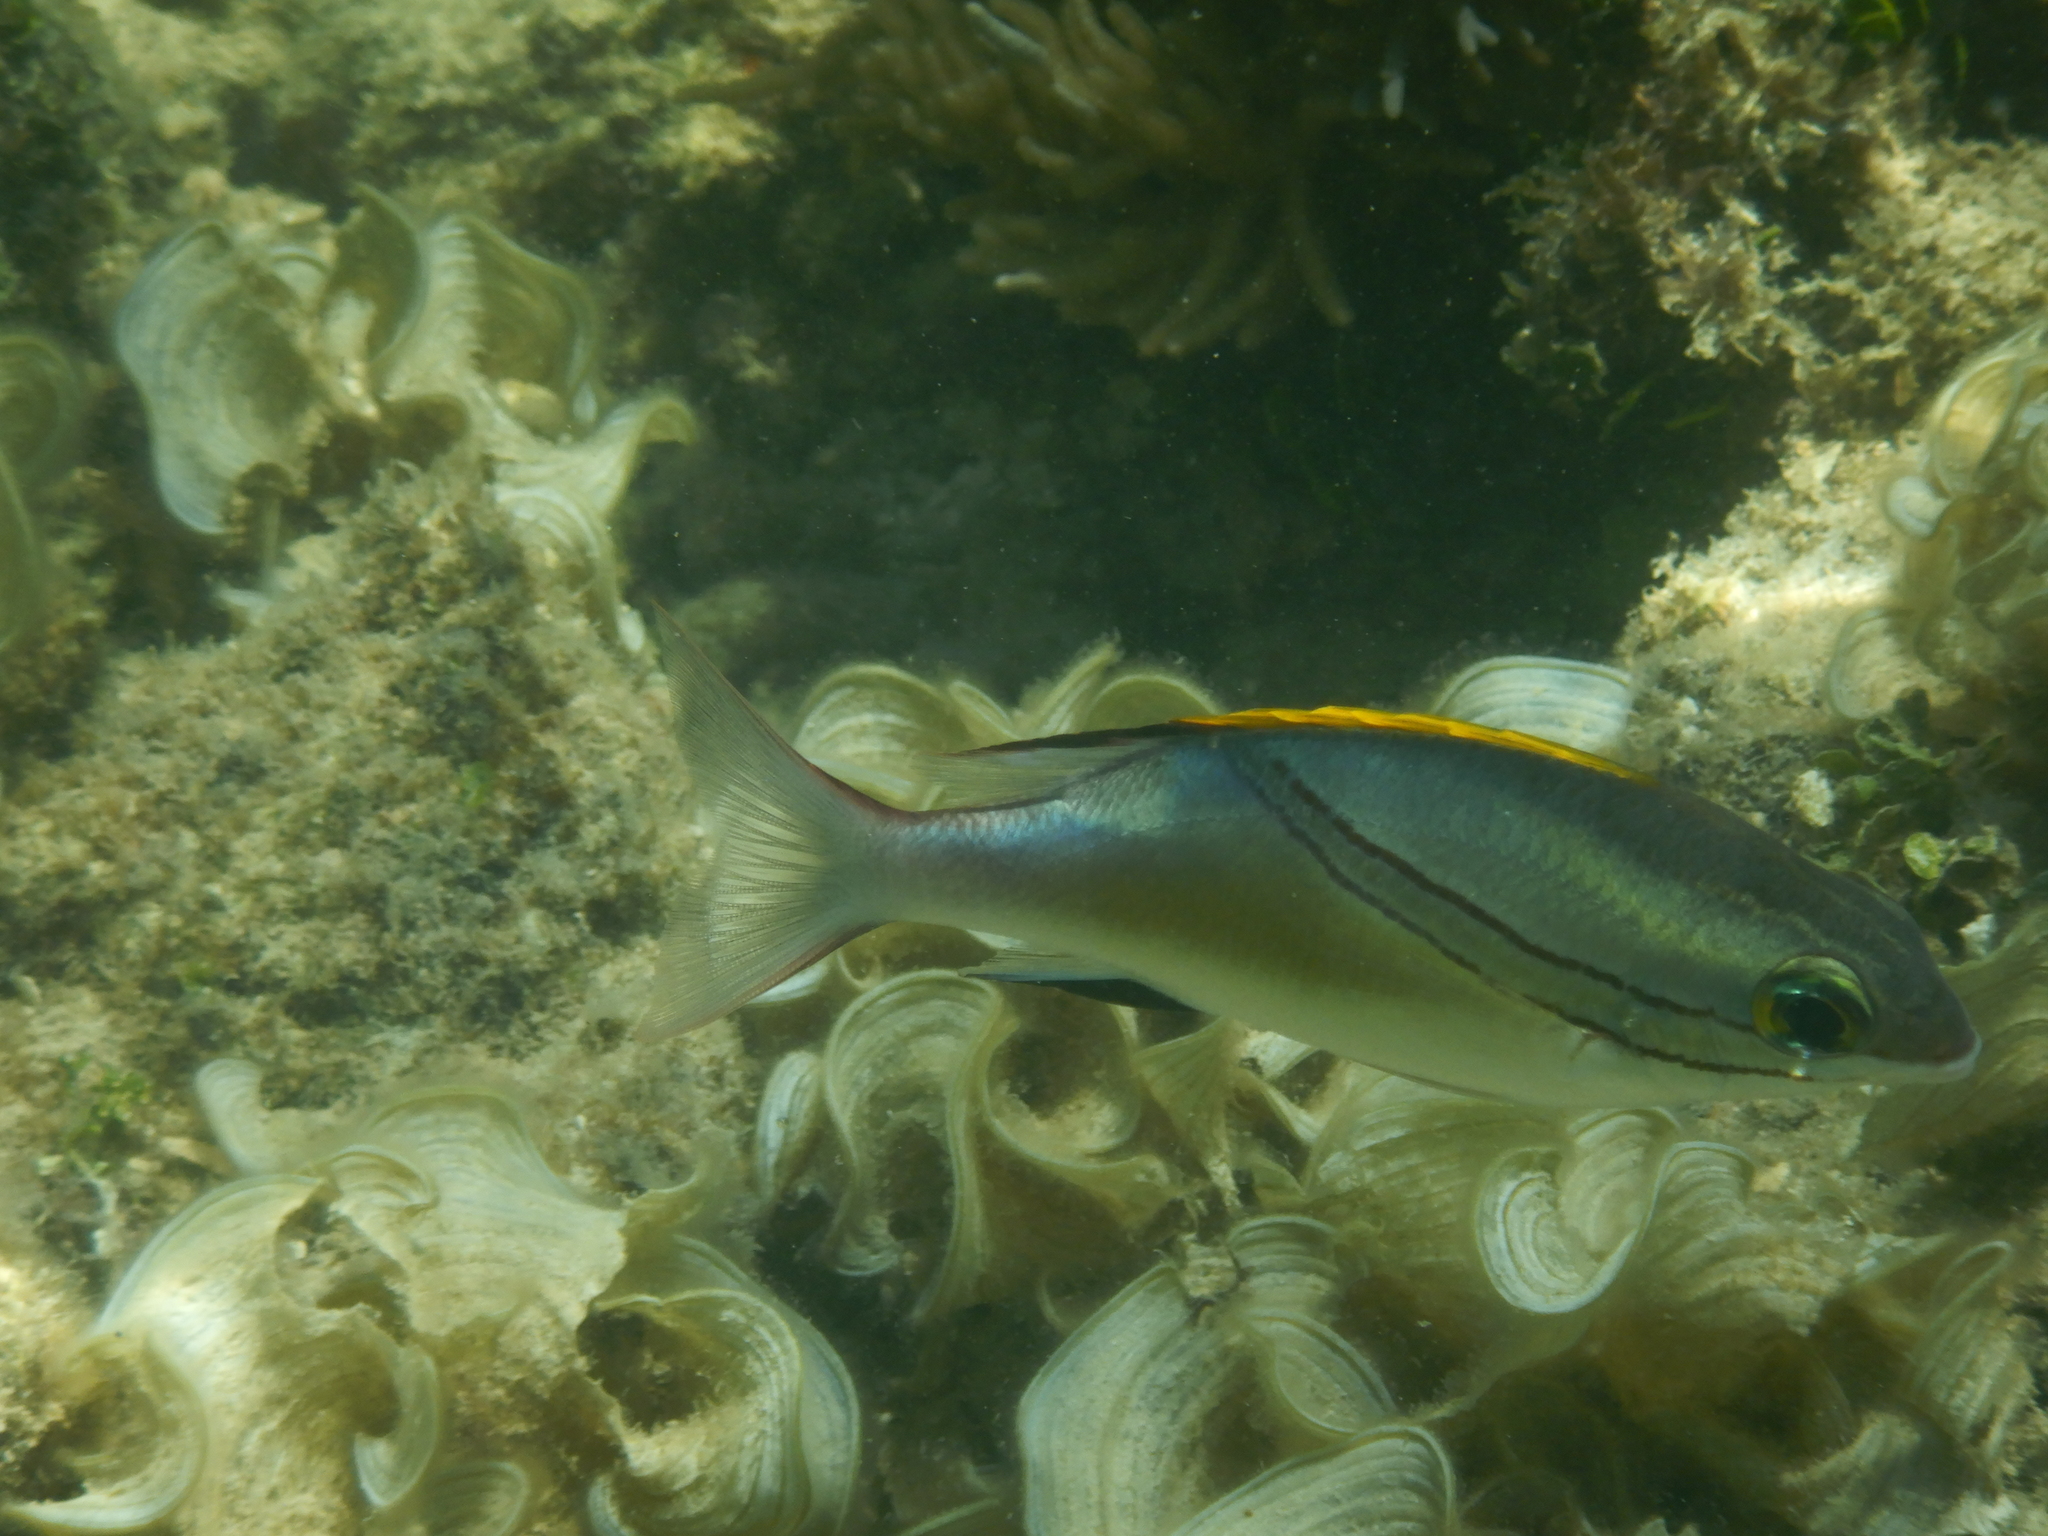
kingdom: Animalia
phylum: Chordata
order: Perciformes
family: Nemipteridae
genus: Scolopsis
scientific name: Scolopsis bilineata
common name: Two-lined monocle bream
